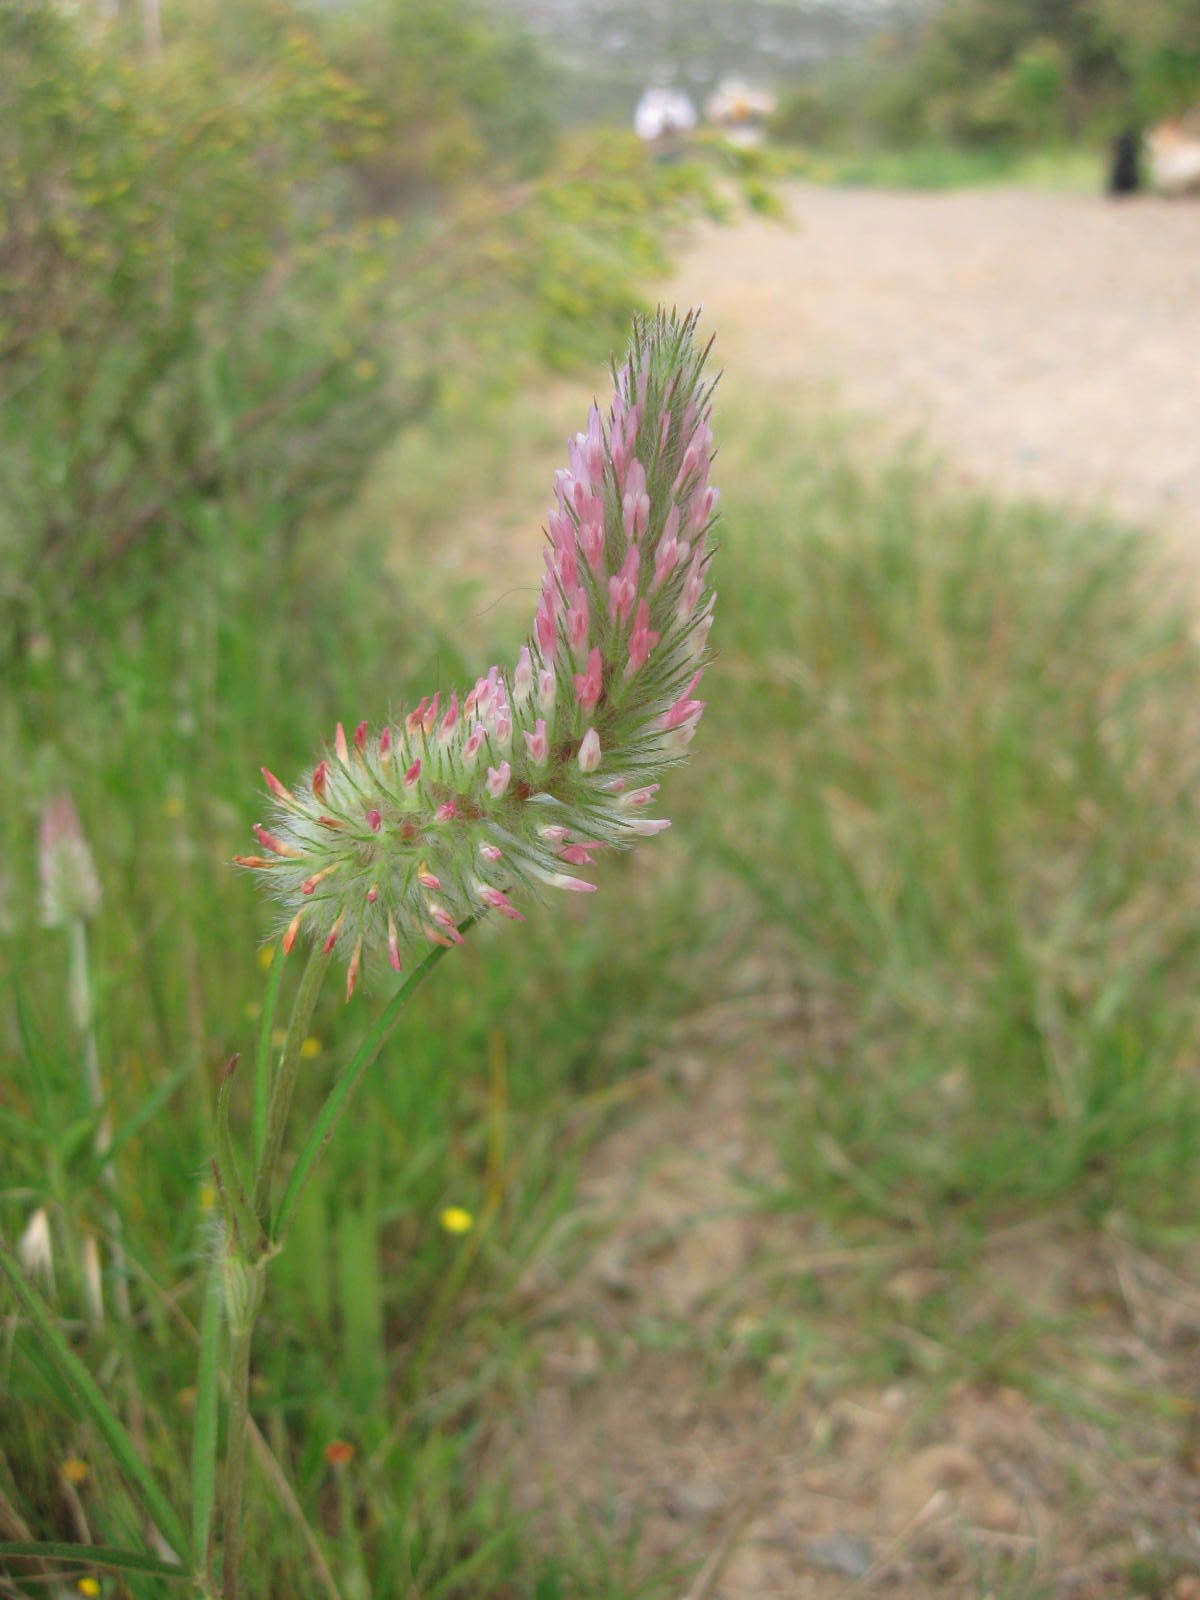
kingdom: Plantae
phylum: Tracheophyta
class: Magnoliopsida
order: Fabales
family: Fabaceae
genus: Trifolium
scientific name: Trifolium angustifolium
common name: Narrow clover
